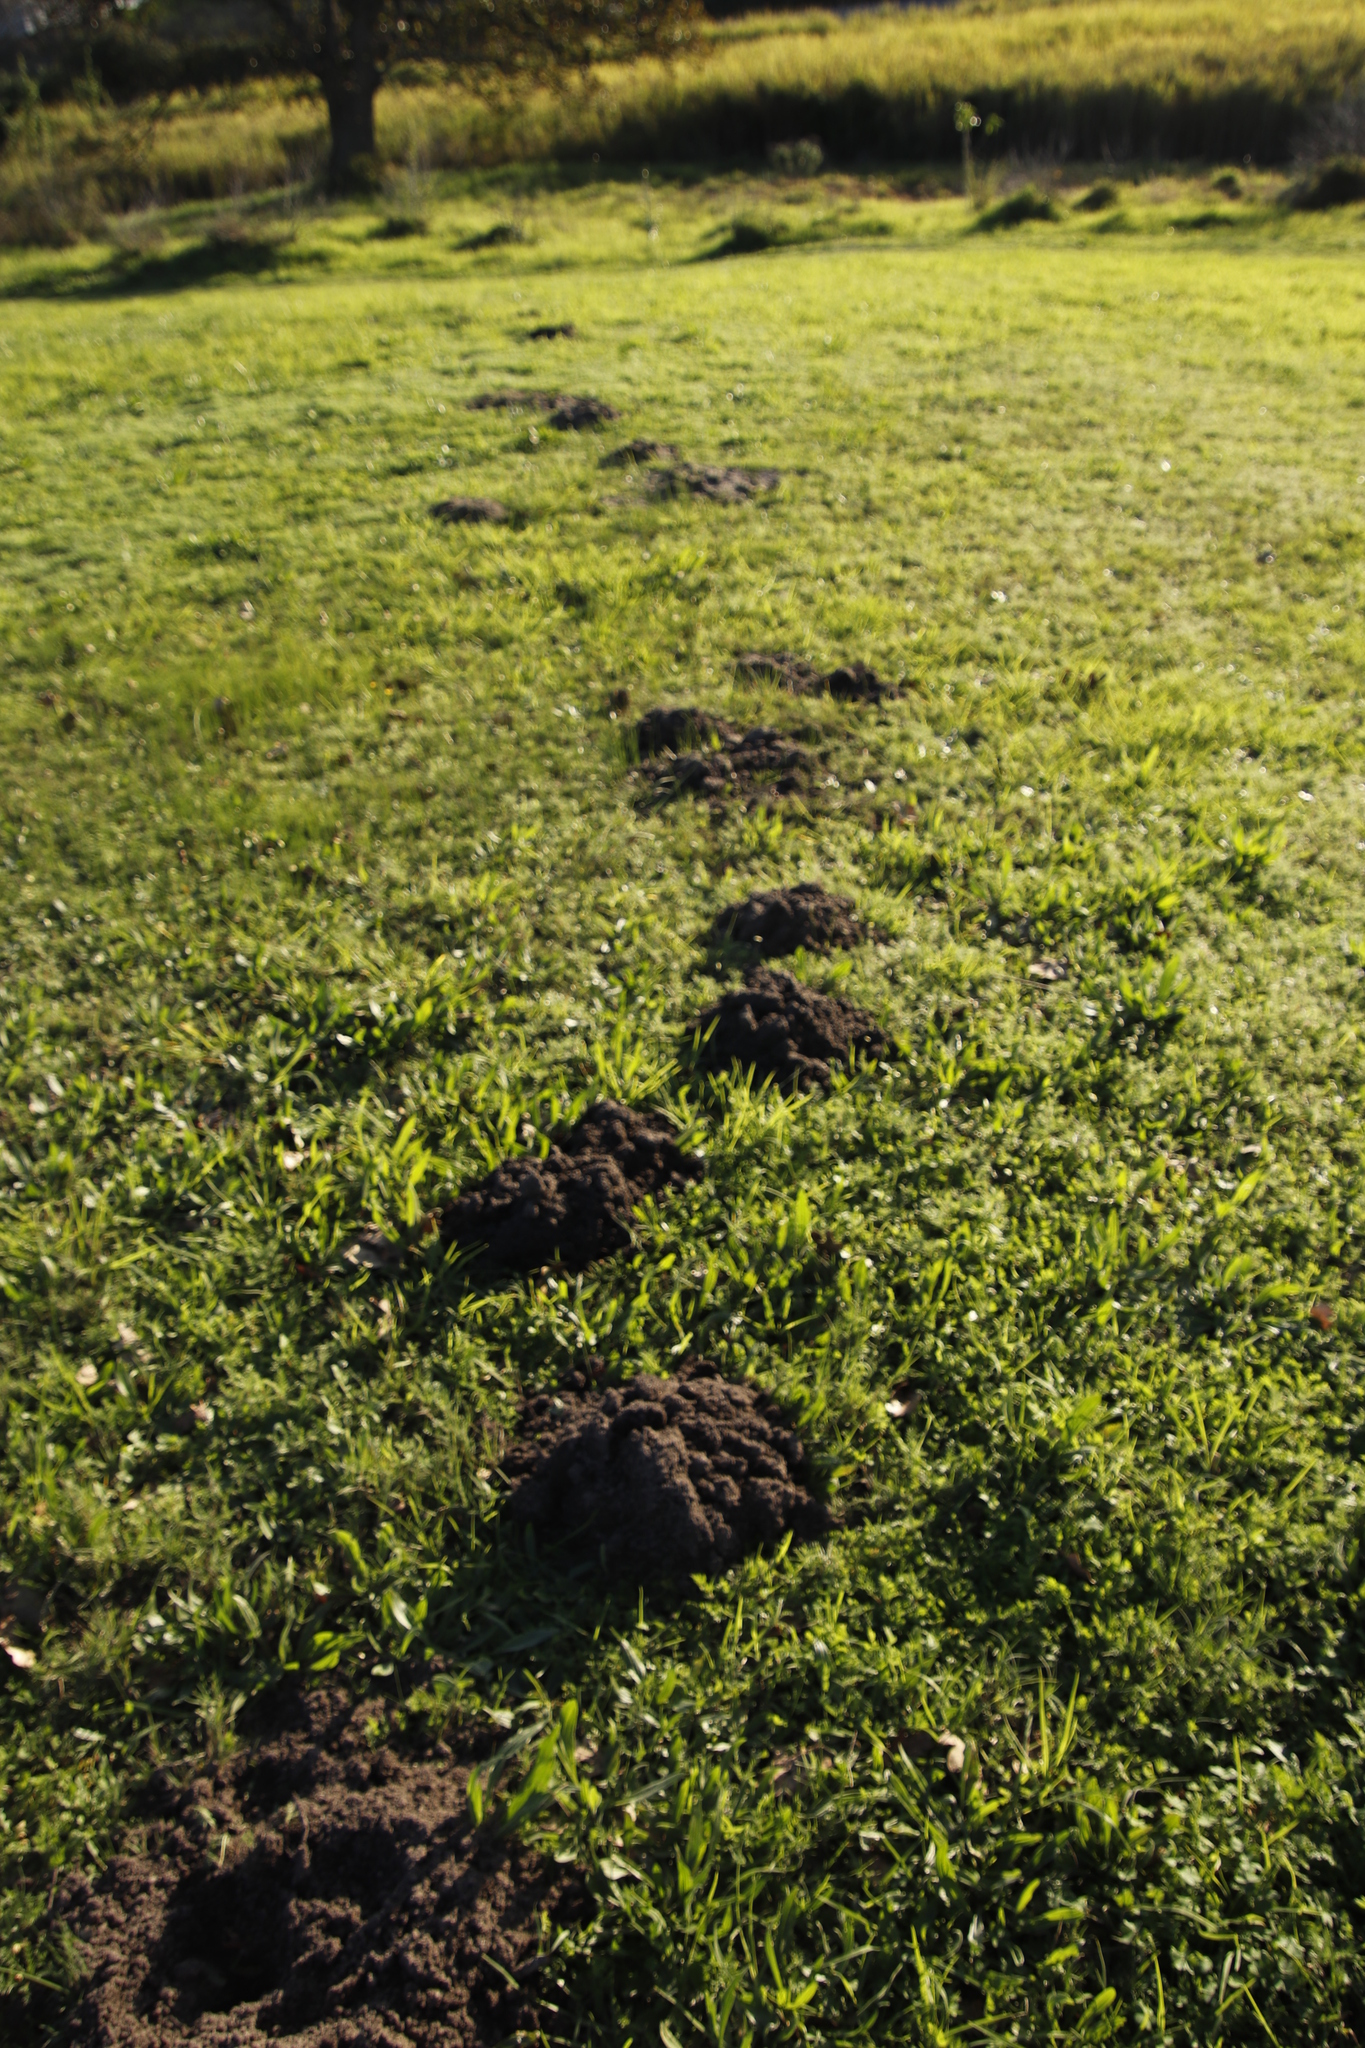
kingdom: Animalia
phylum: Chordata
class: Mammalia
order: Rodentia
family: Bathyergidae
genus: Georychus
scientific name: Georychus capensis
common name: Cape mole-rat
